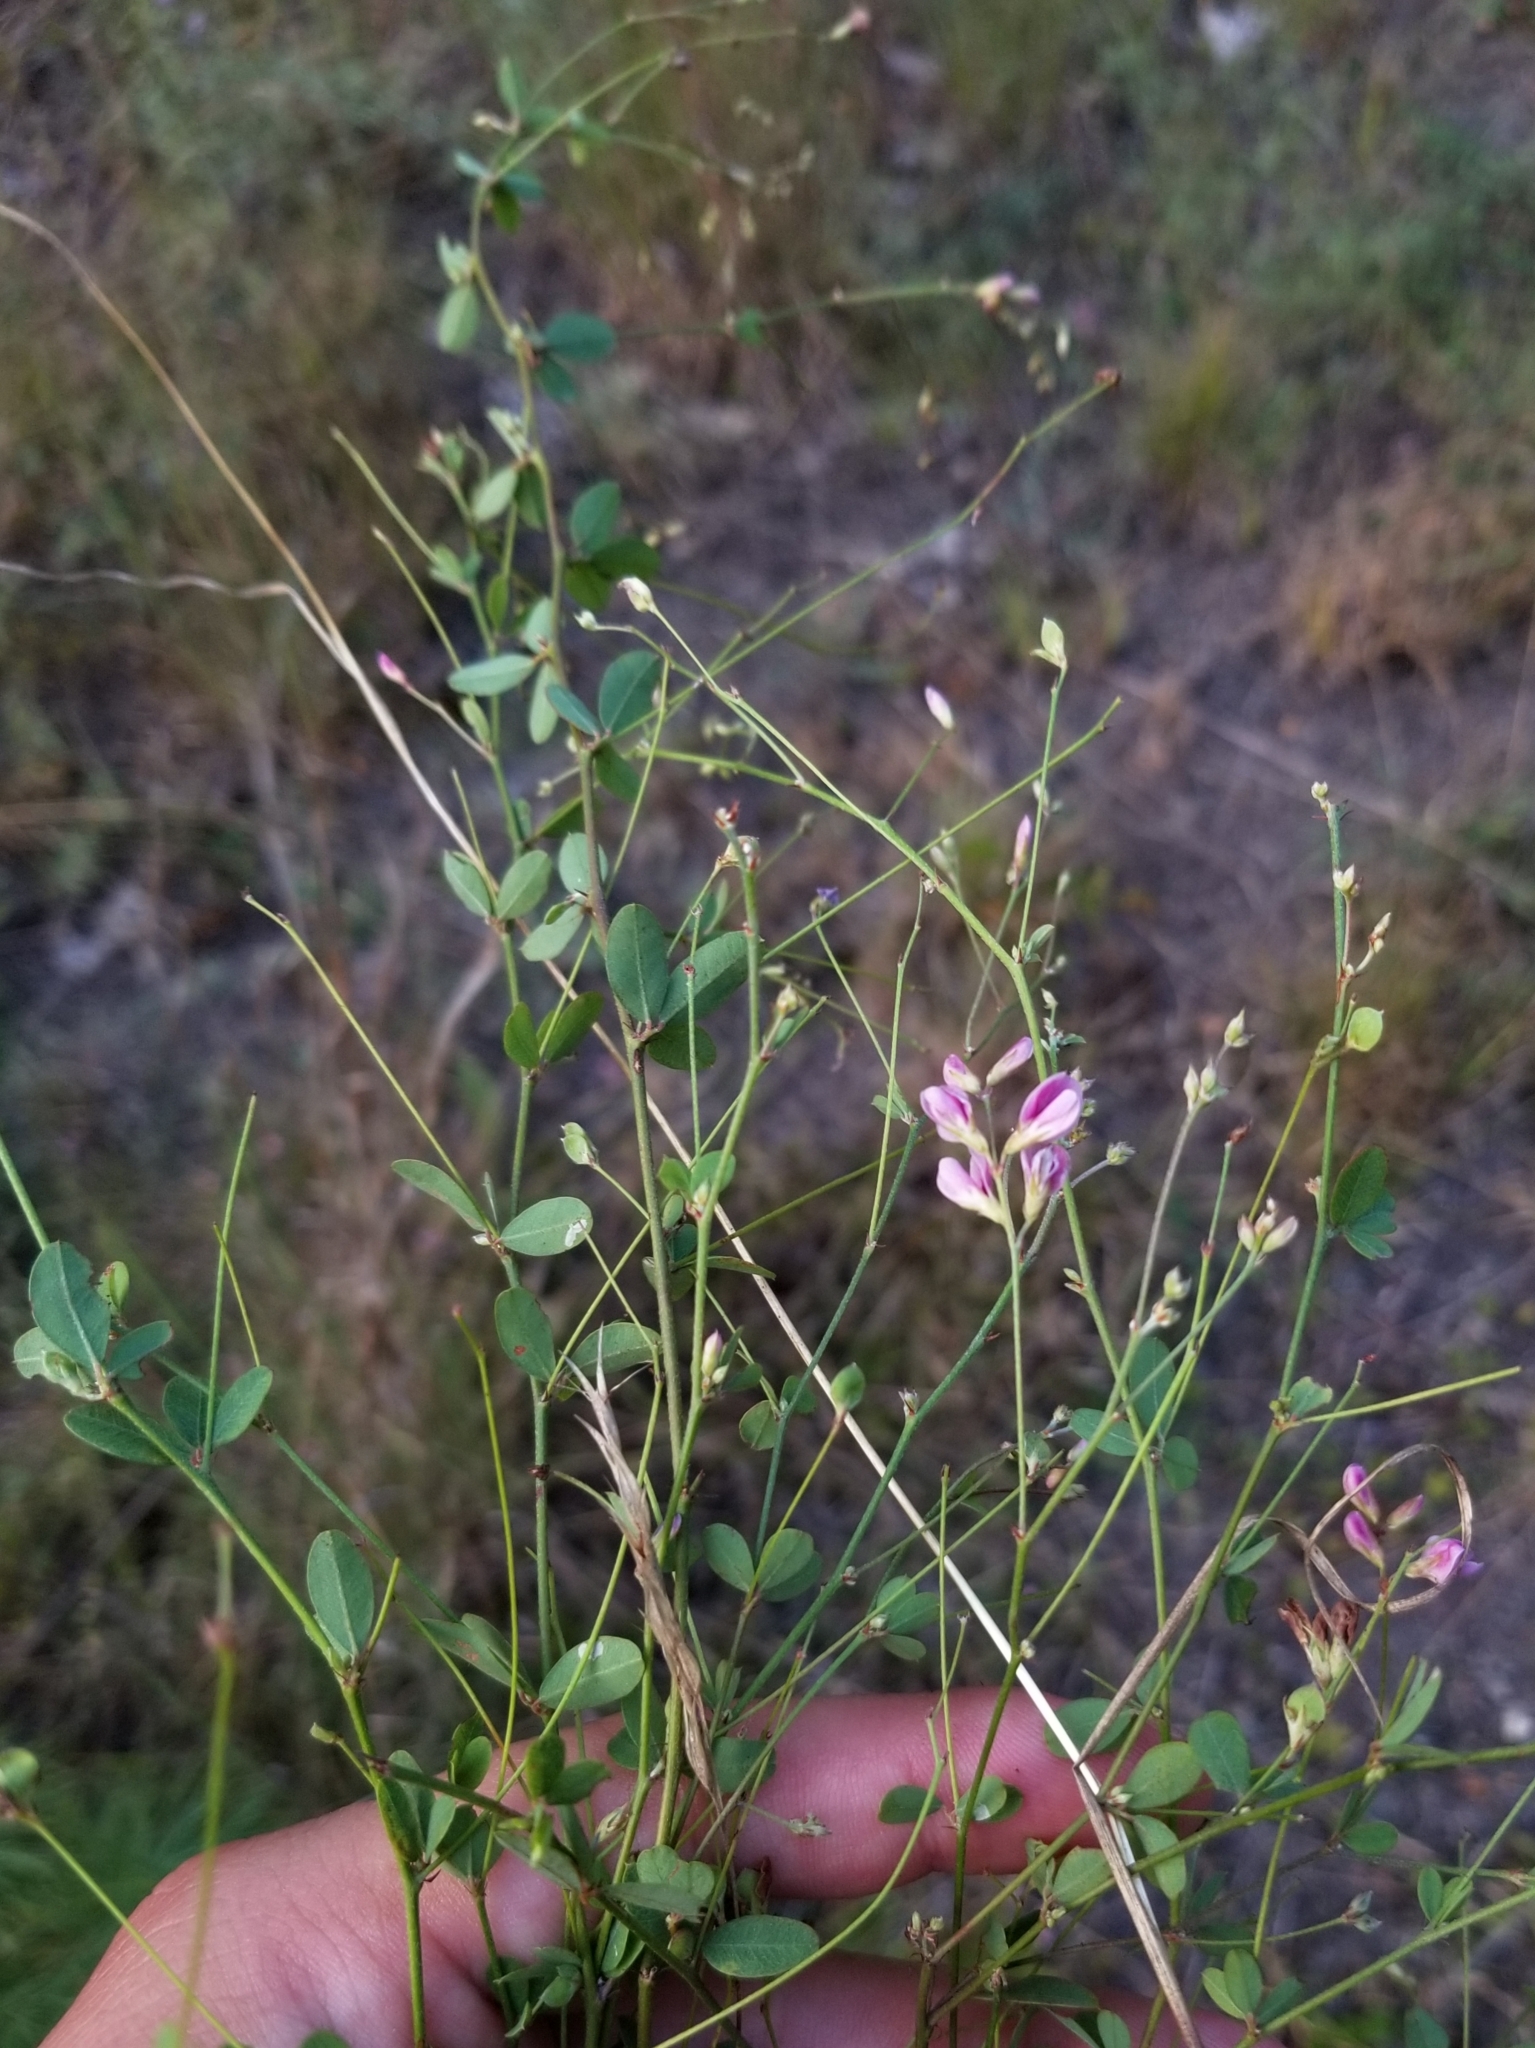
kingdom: Plantae
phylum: Tracheophyta
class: Magnoliopsida
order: Fabales
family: Fabaceae
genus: Lespedeza
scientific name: Lespedeza violacea
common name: Wand bush-clover
